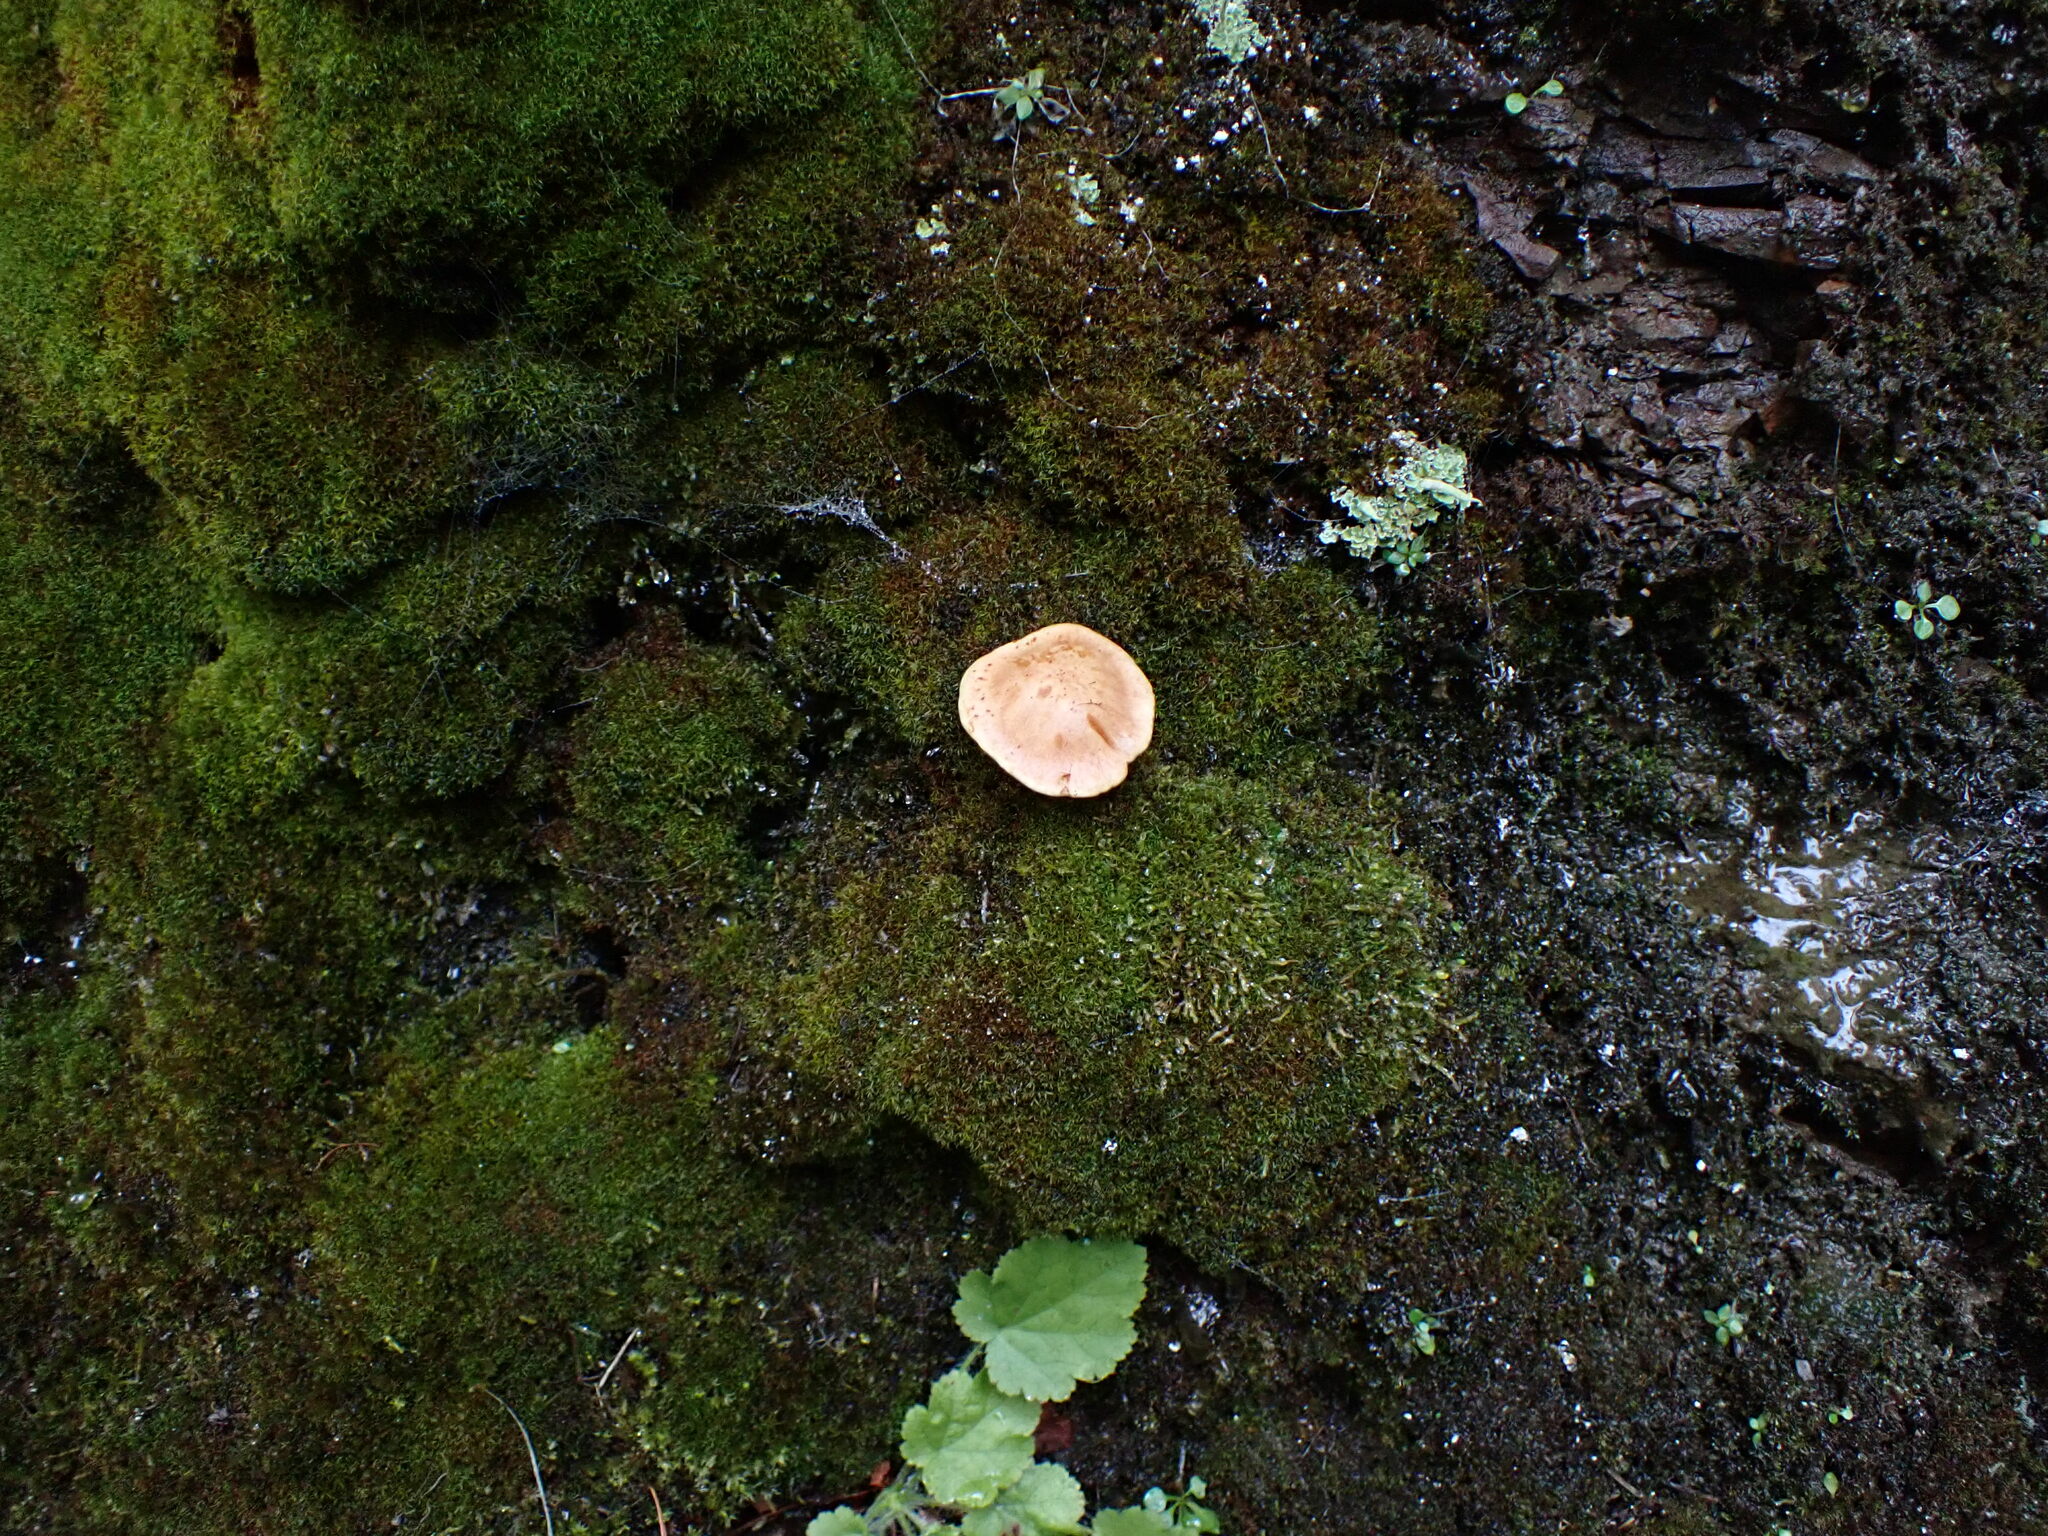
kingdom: Fungi
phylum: Basidiomycota
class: Agaricomycetes
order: Boletales
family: Suillaceae
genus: Suillus
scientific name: Suillus caerulescens
